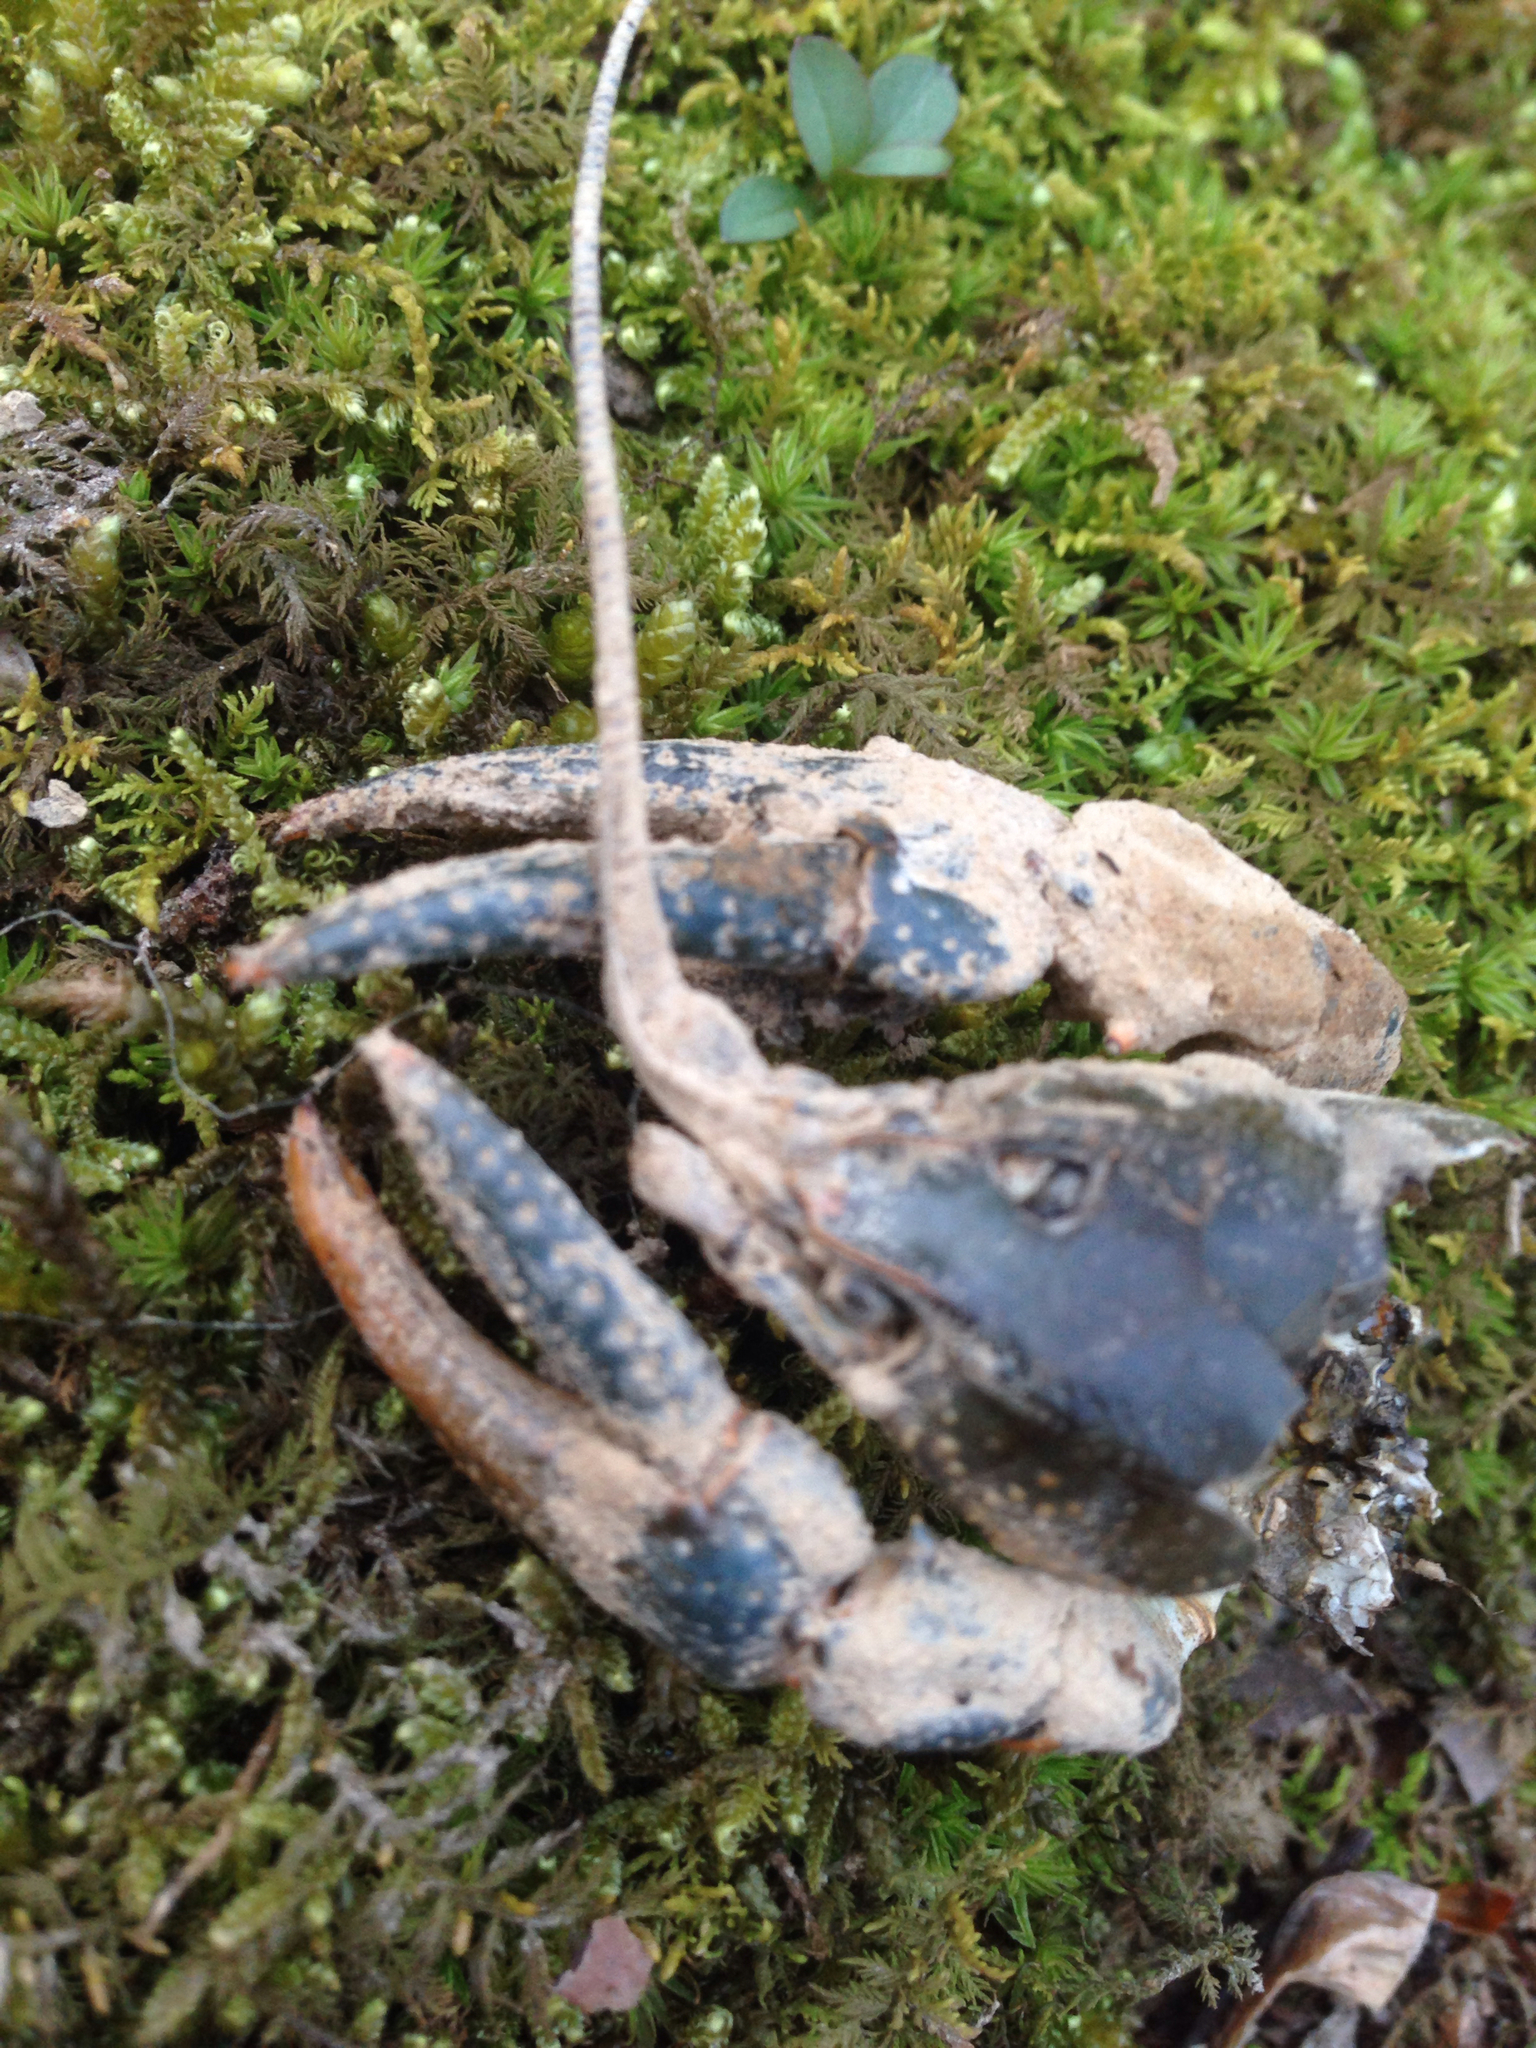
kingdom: Animalia
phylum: Arthropoda
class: Malacostraca
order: Decapoda
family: Cambaridae
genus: Procambarus
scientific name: Procambarus clarkii
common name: Red swamp crayfish
